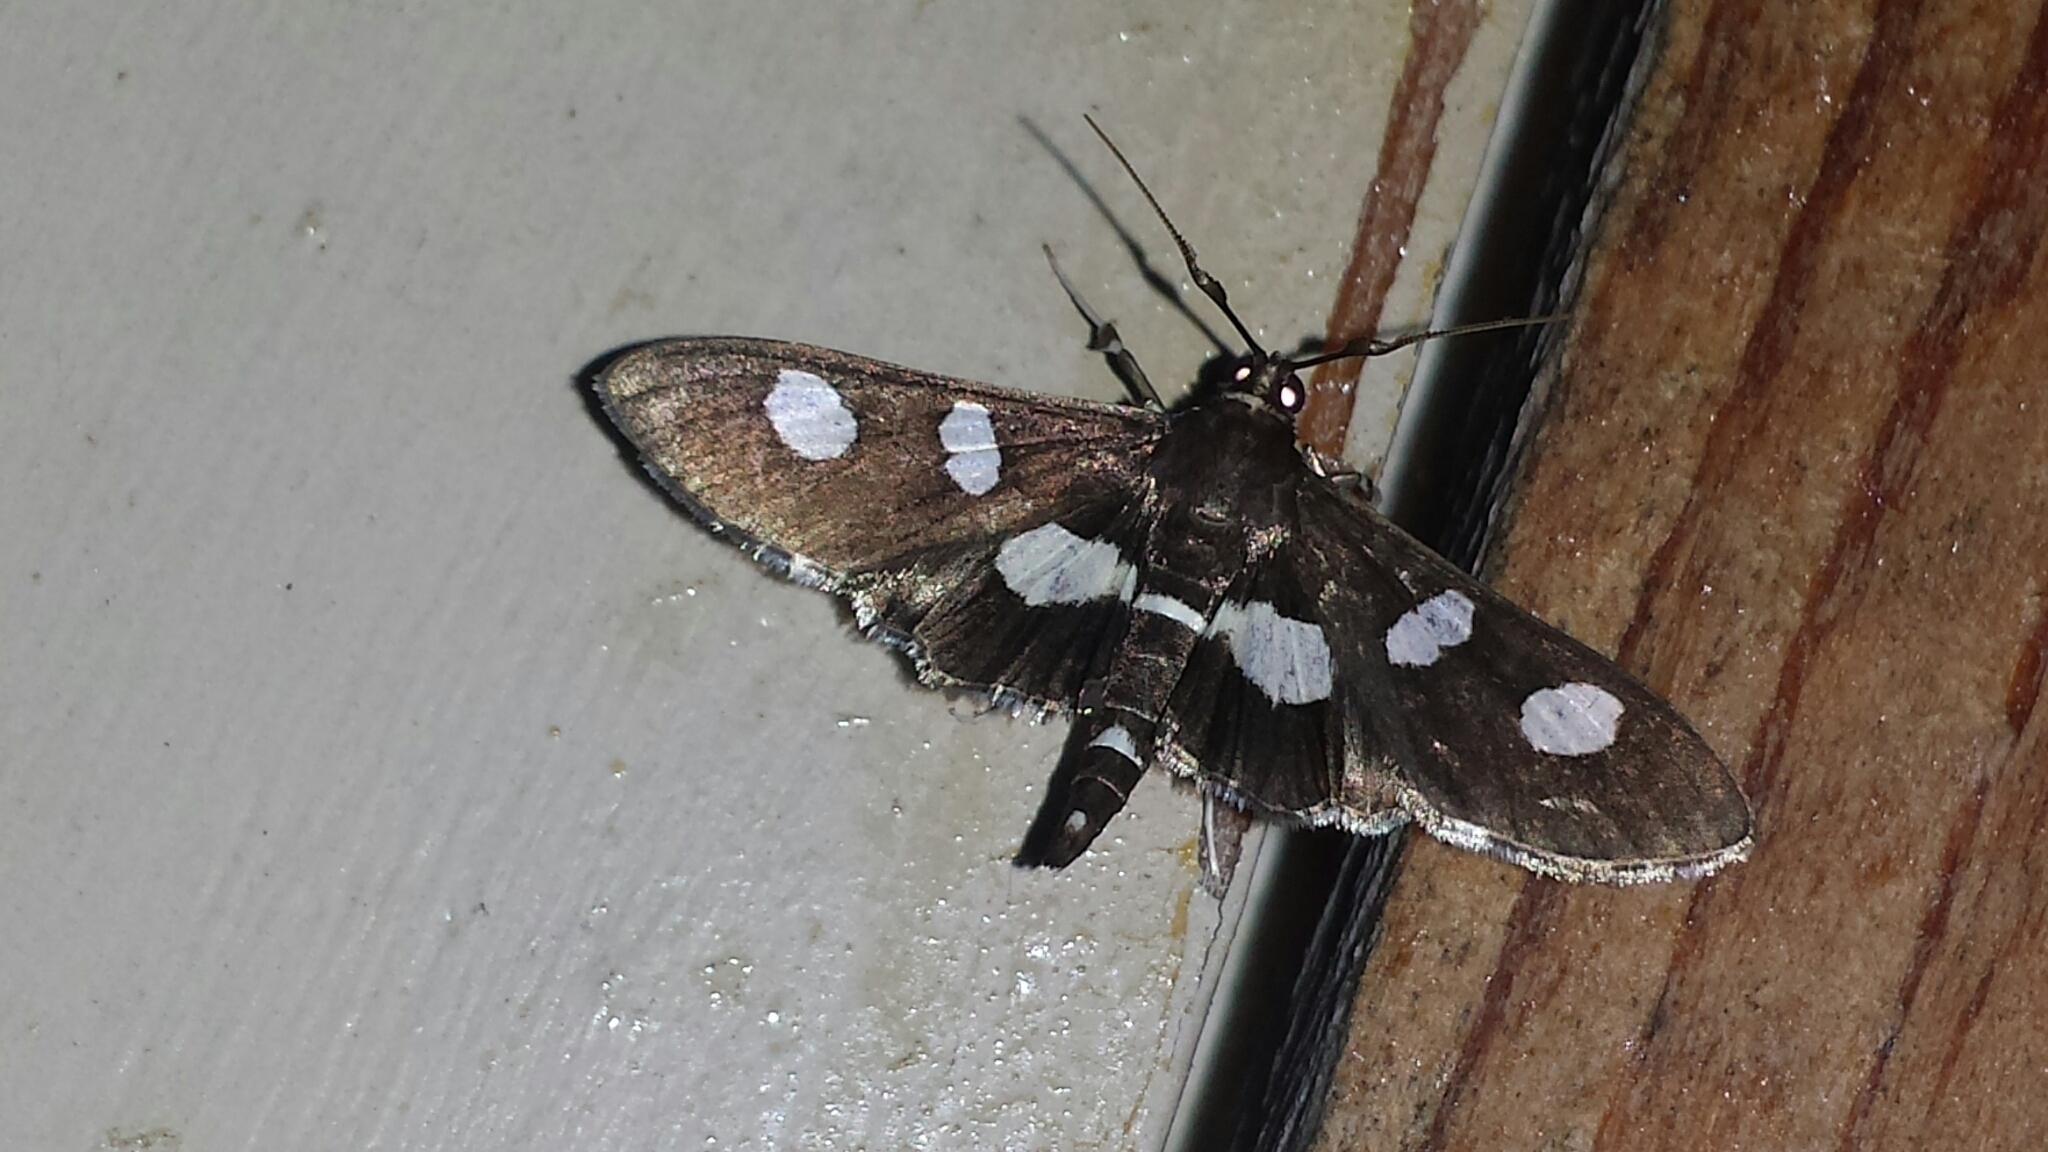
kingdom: Animalia
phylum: Arthropoda
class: Insecta
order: Lepidoptera
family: Crambidae
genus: Desmia
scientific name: Desmia
